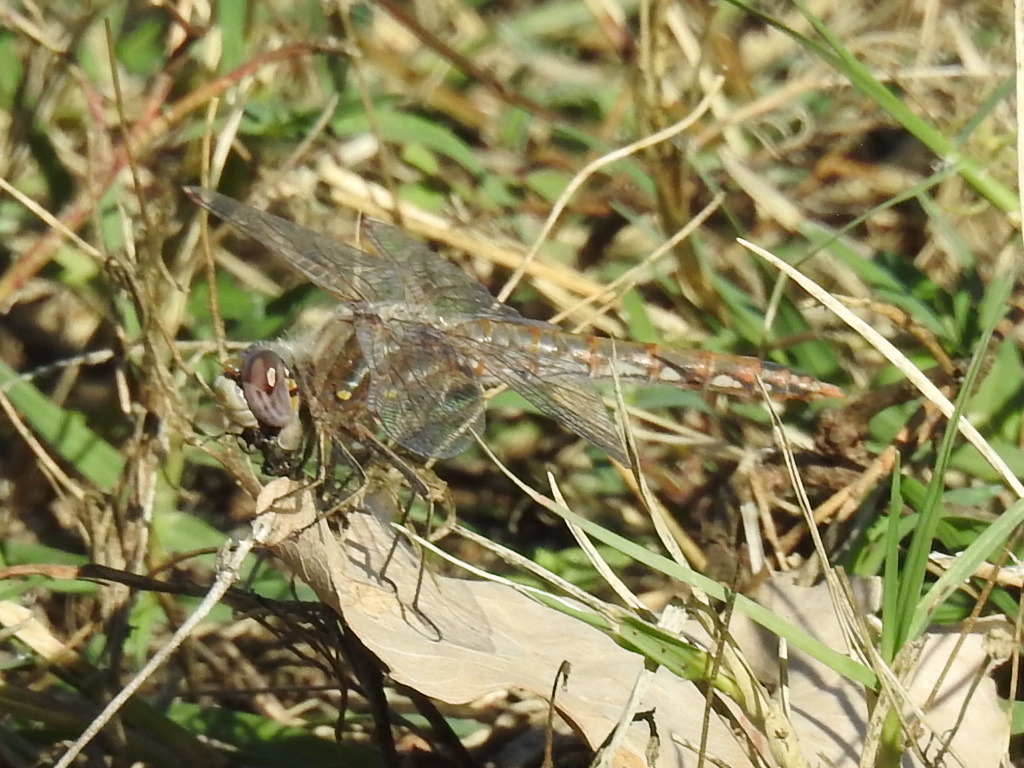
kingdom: Animalia
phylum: Arthropoda
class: Insecta
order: Odonata
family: Libellulidae
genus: Sympetrum
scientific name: Sympetrum corruptum
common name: Variegated meadowhawk
